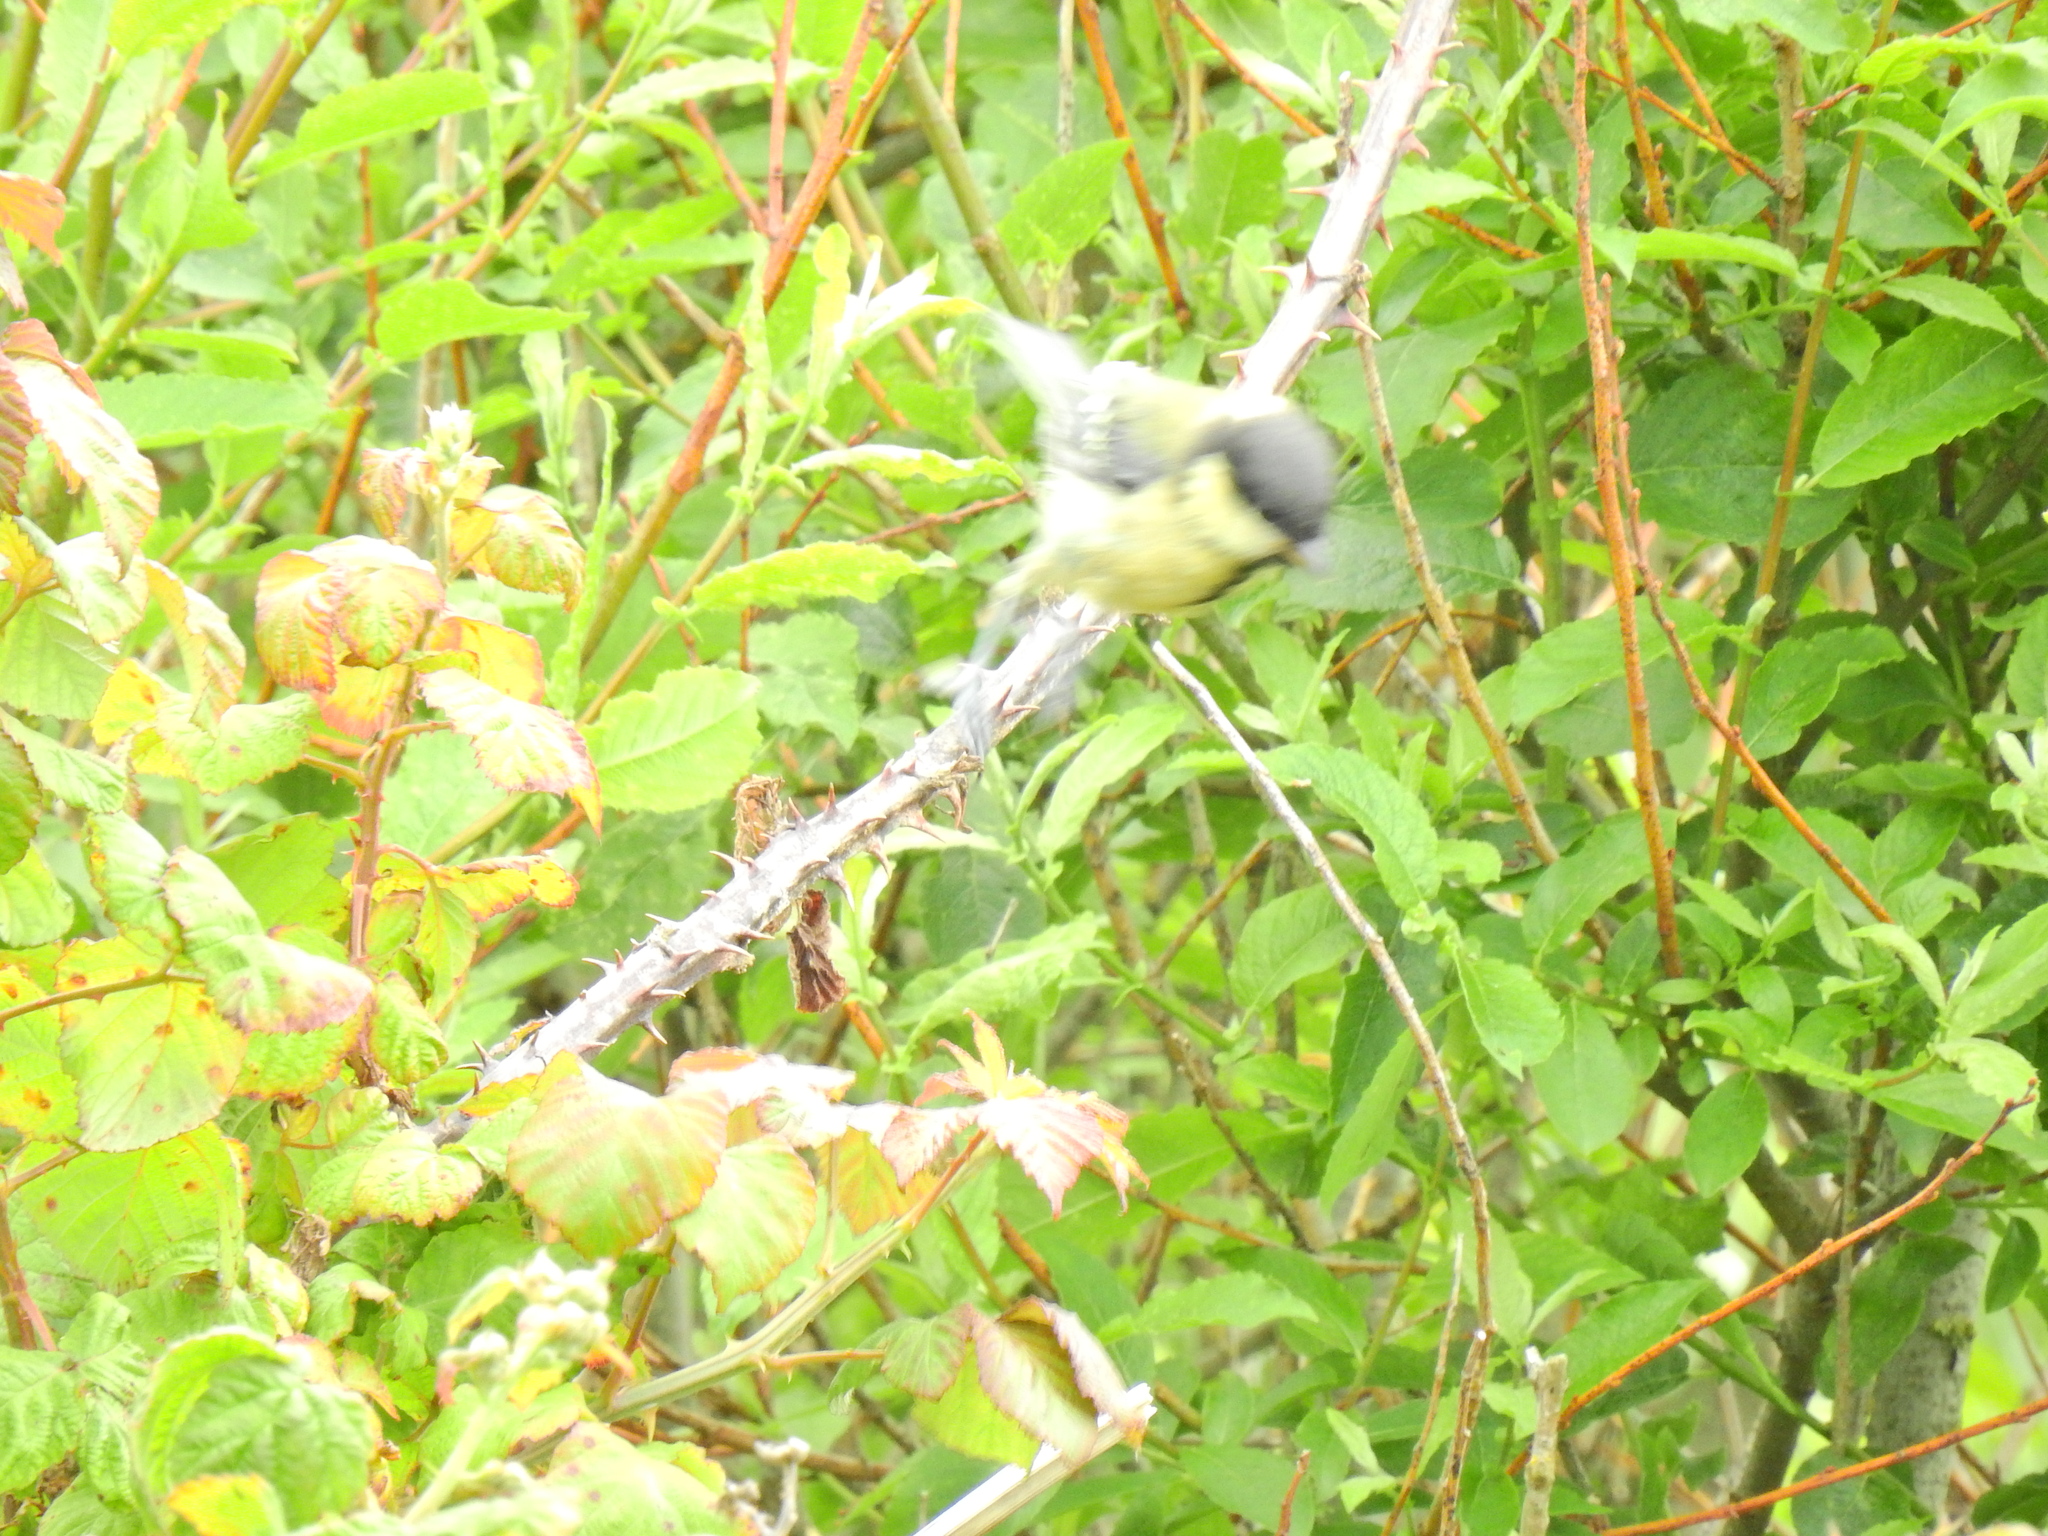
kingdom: Animalia
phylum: Chordata
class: Aves
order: Passeriformes
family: Paridae
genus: Parus
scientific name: Parus major
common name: Great tit
